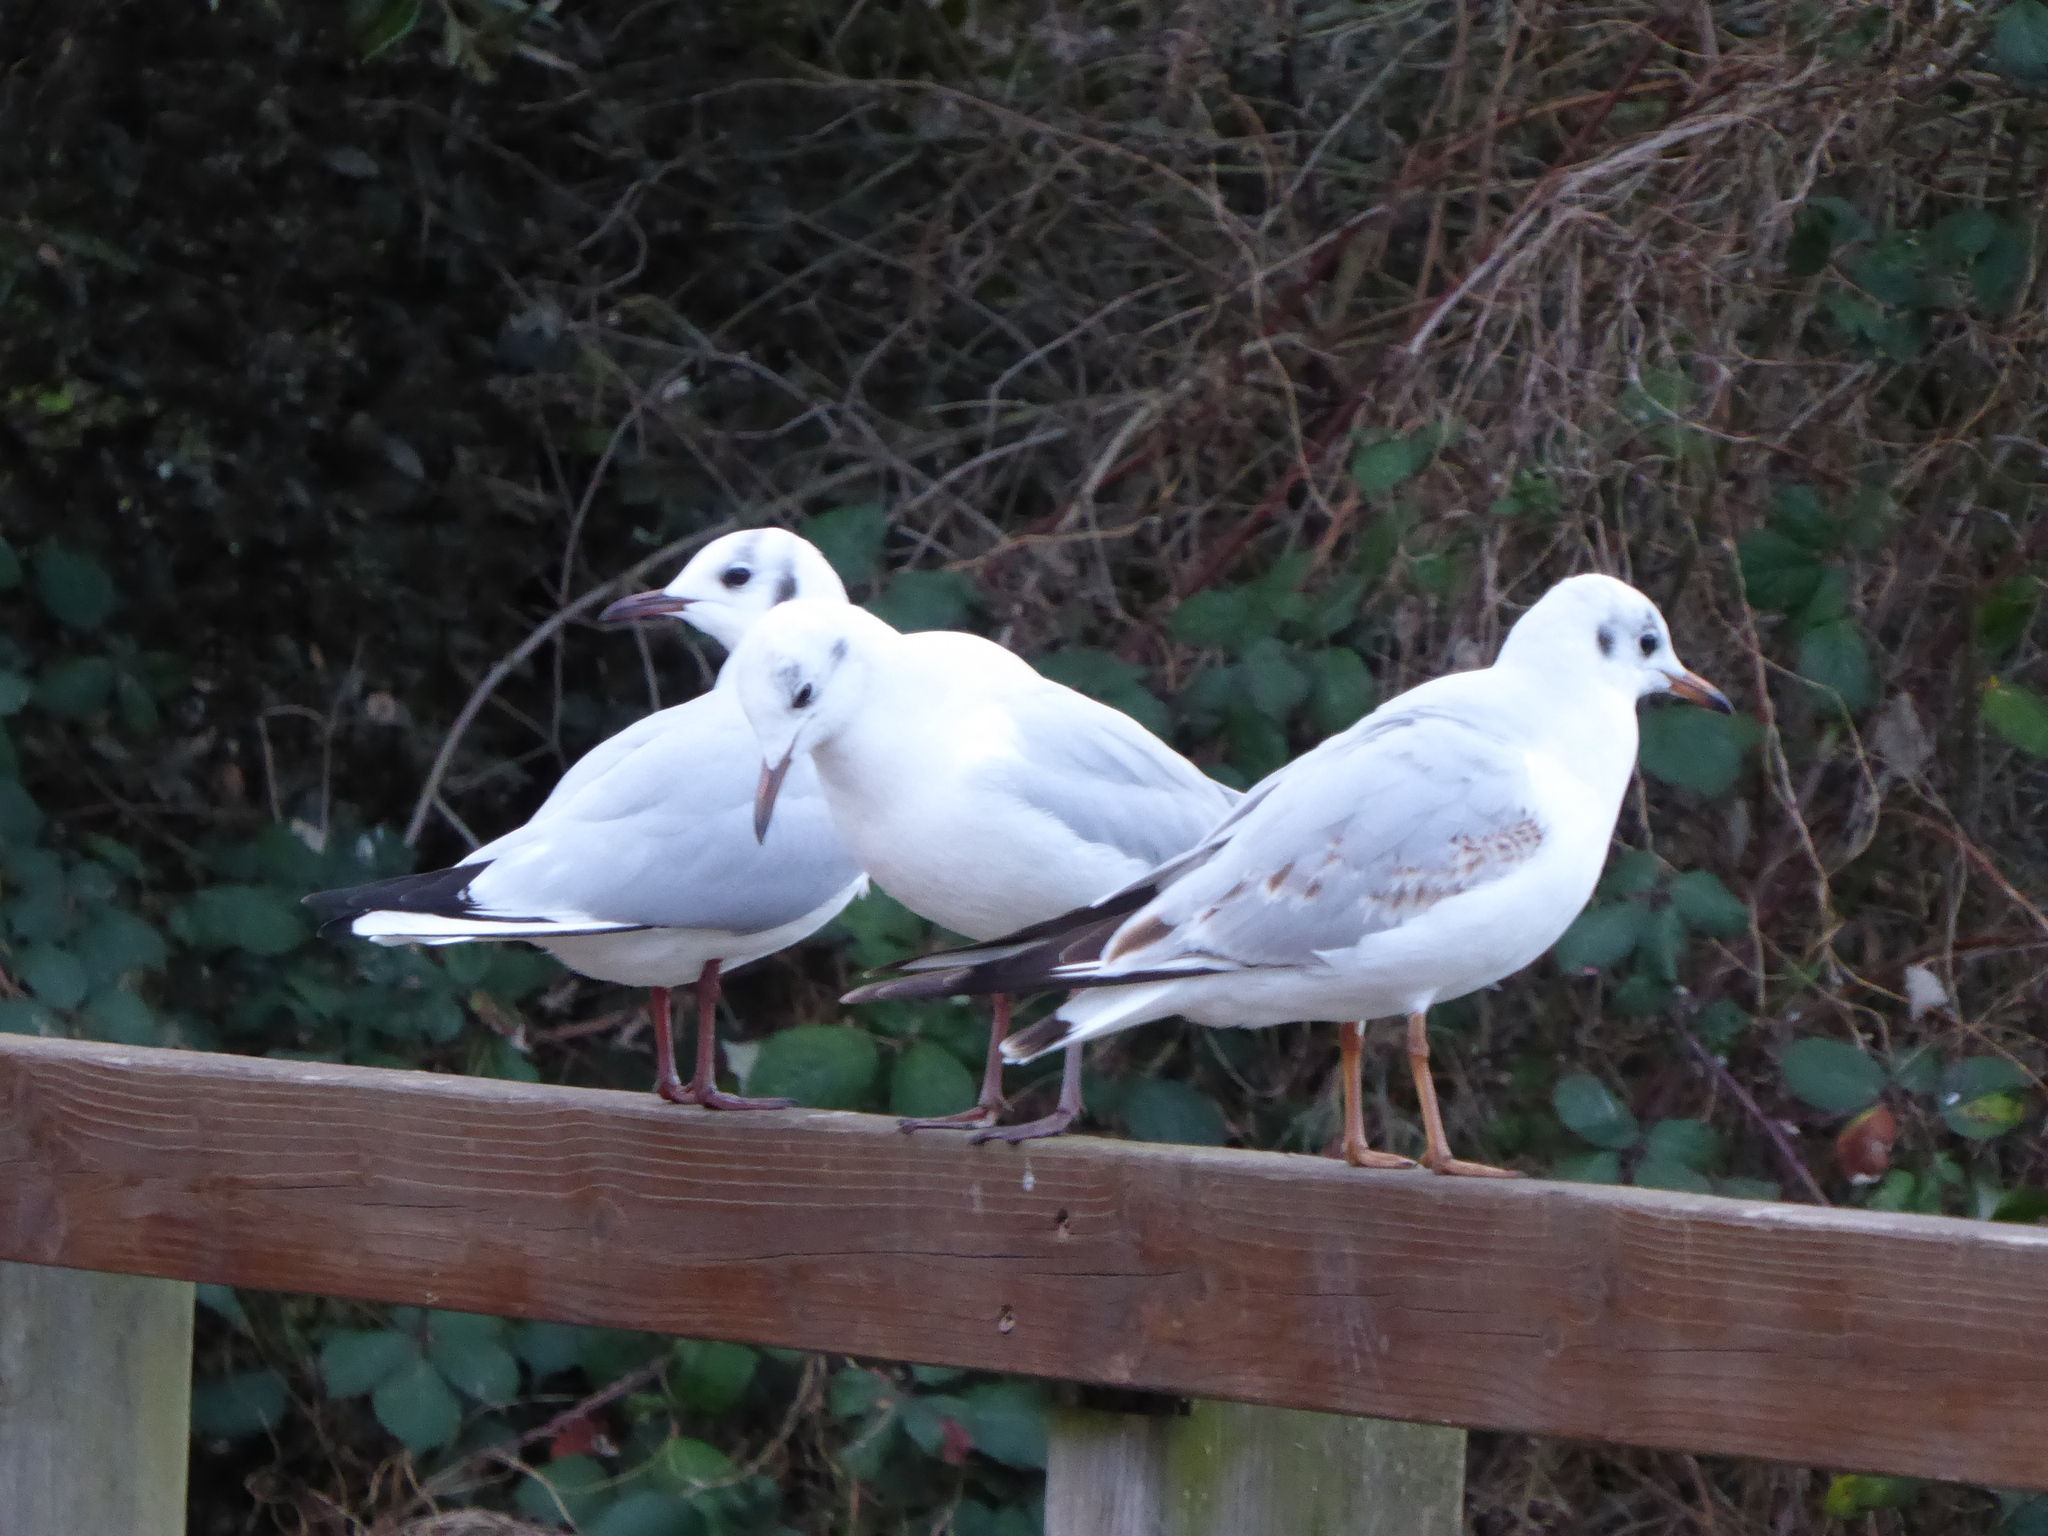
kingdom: Animalia
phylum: Chordata
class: Aves
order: Charadriiformes
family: Laridae
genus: Chroicocephalus
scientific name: Chroicocephalus ridibundus
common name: Black-headed gull
